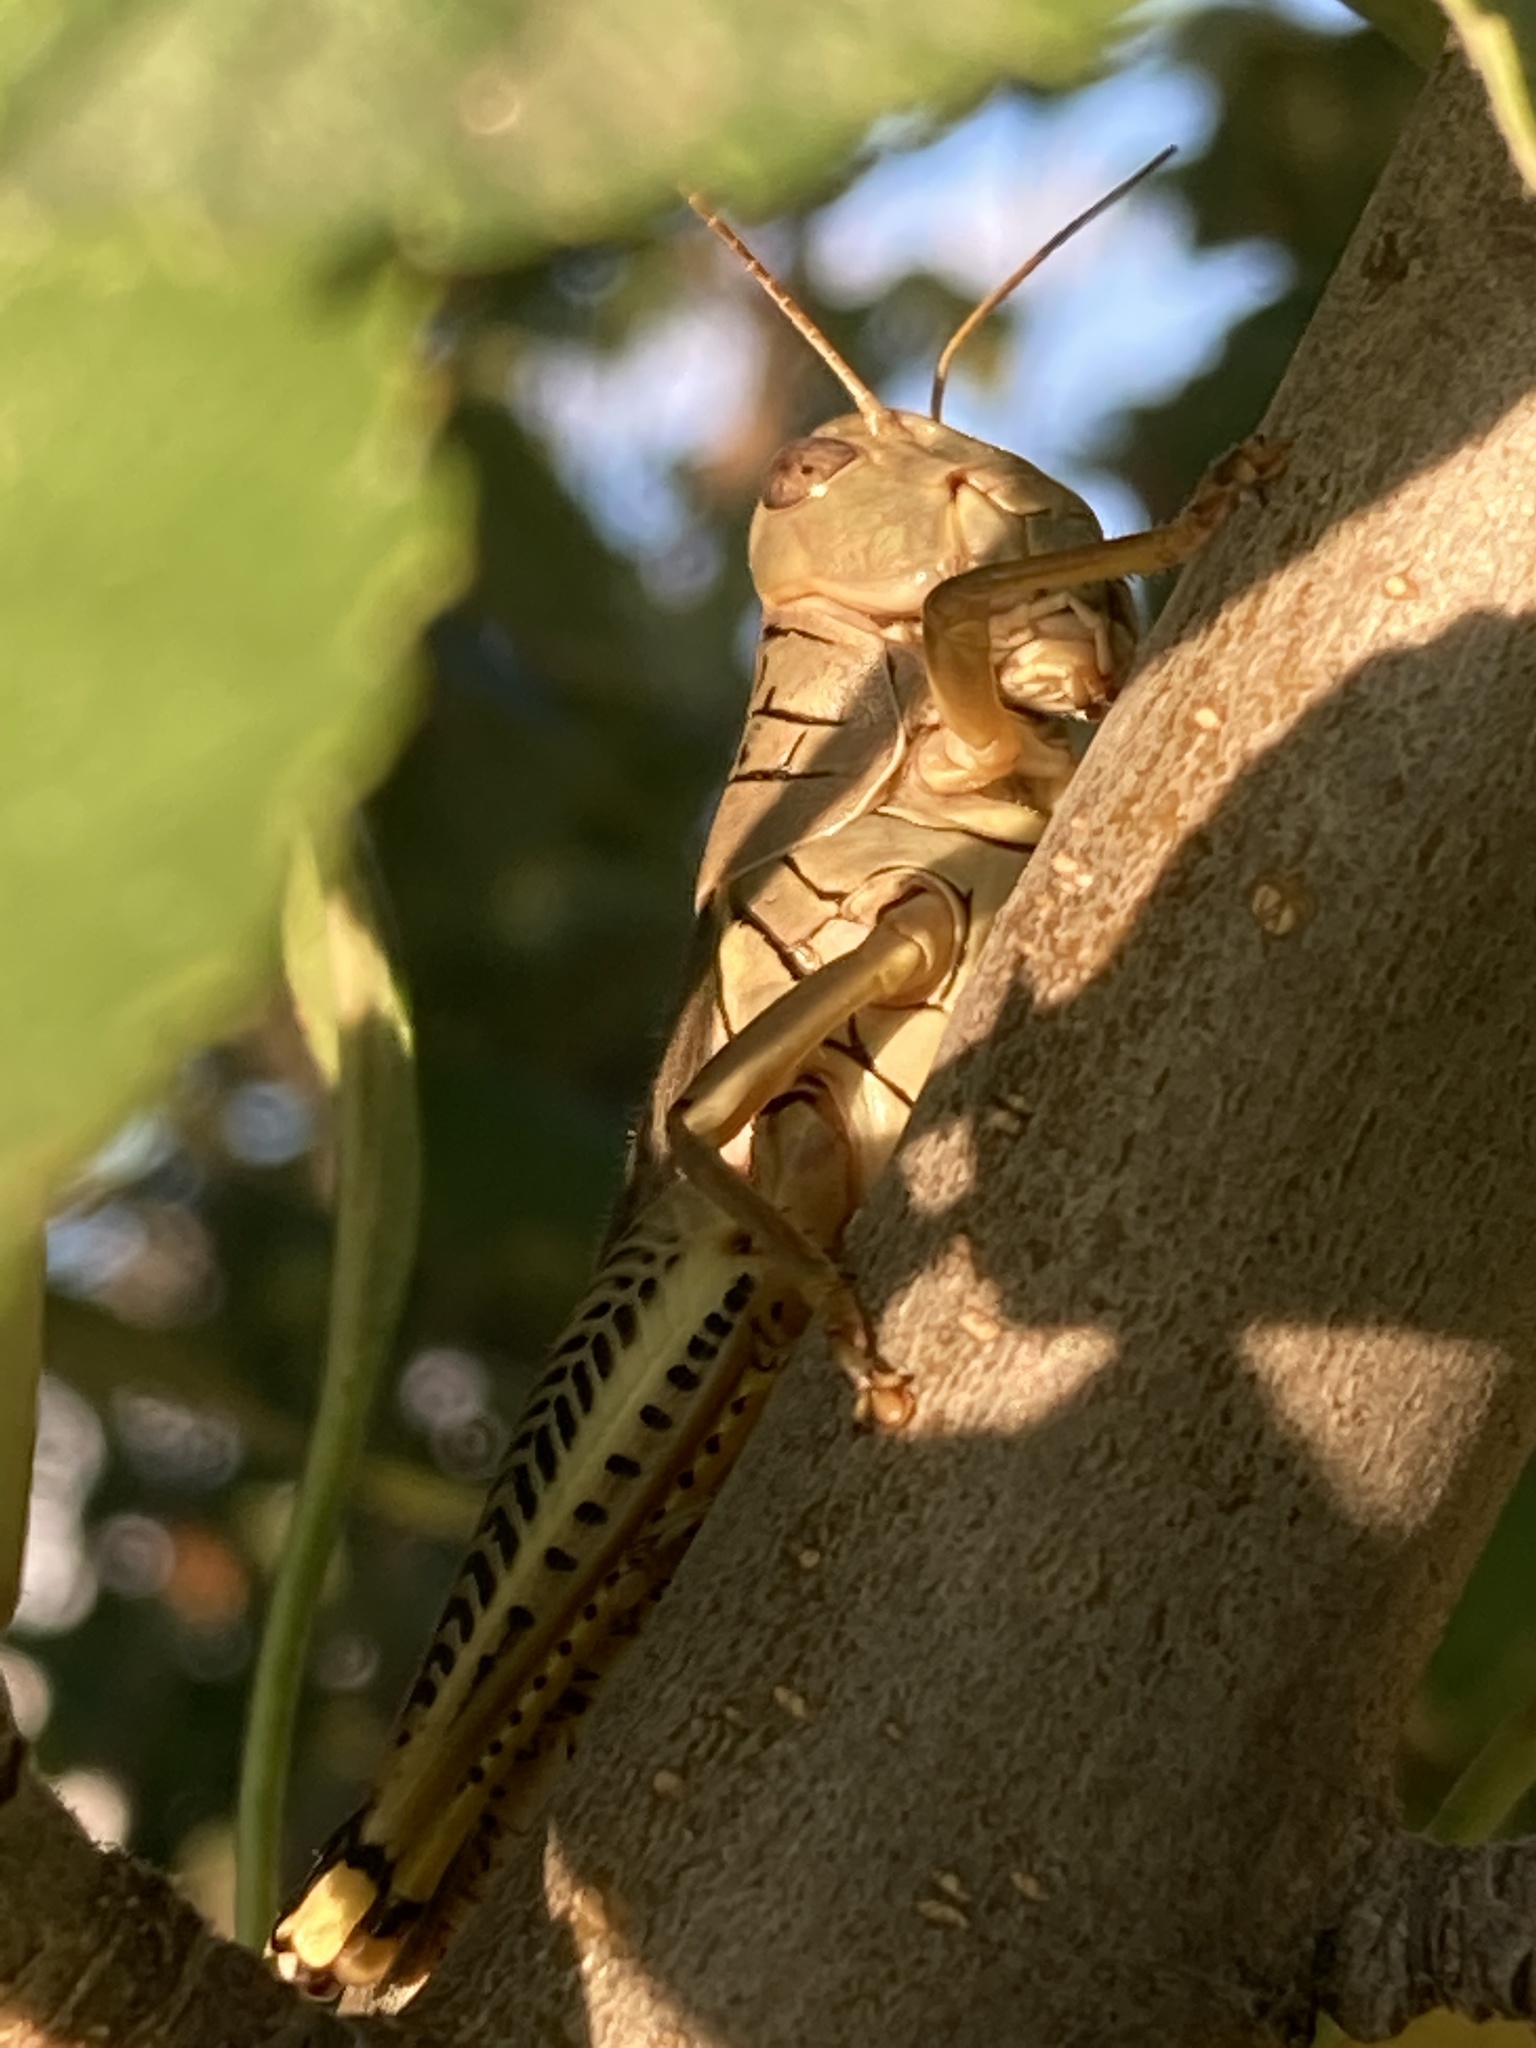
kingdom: Animalia
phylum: Arthropoda
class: Insecta
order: Orthoptera
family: Acrididae
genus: Melanoplus
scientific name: Melanoplus differentialis
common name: Differential grasshopper
